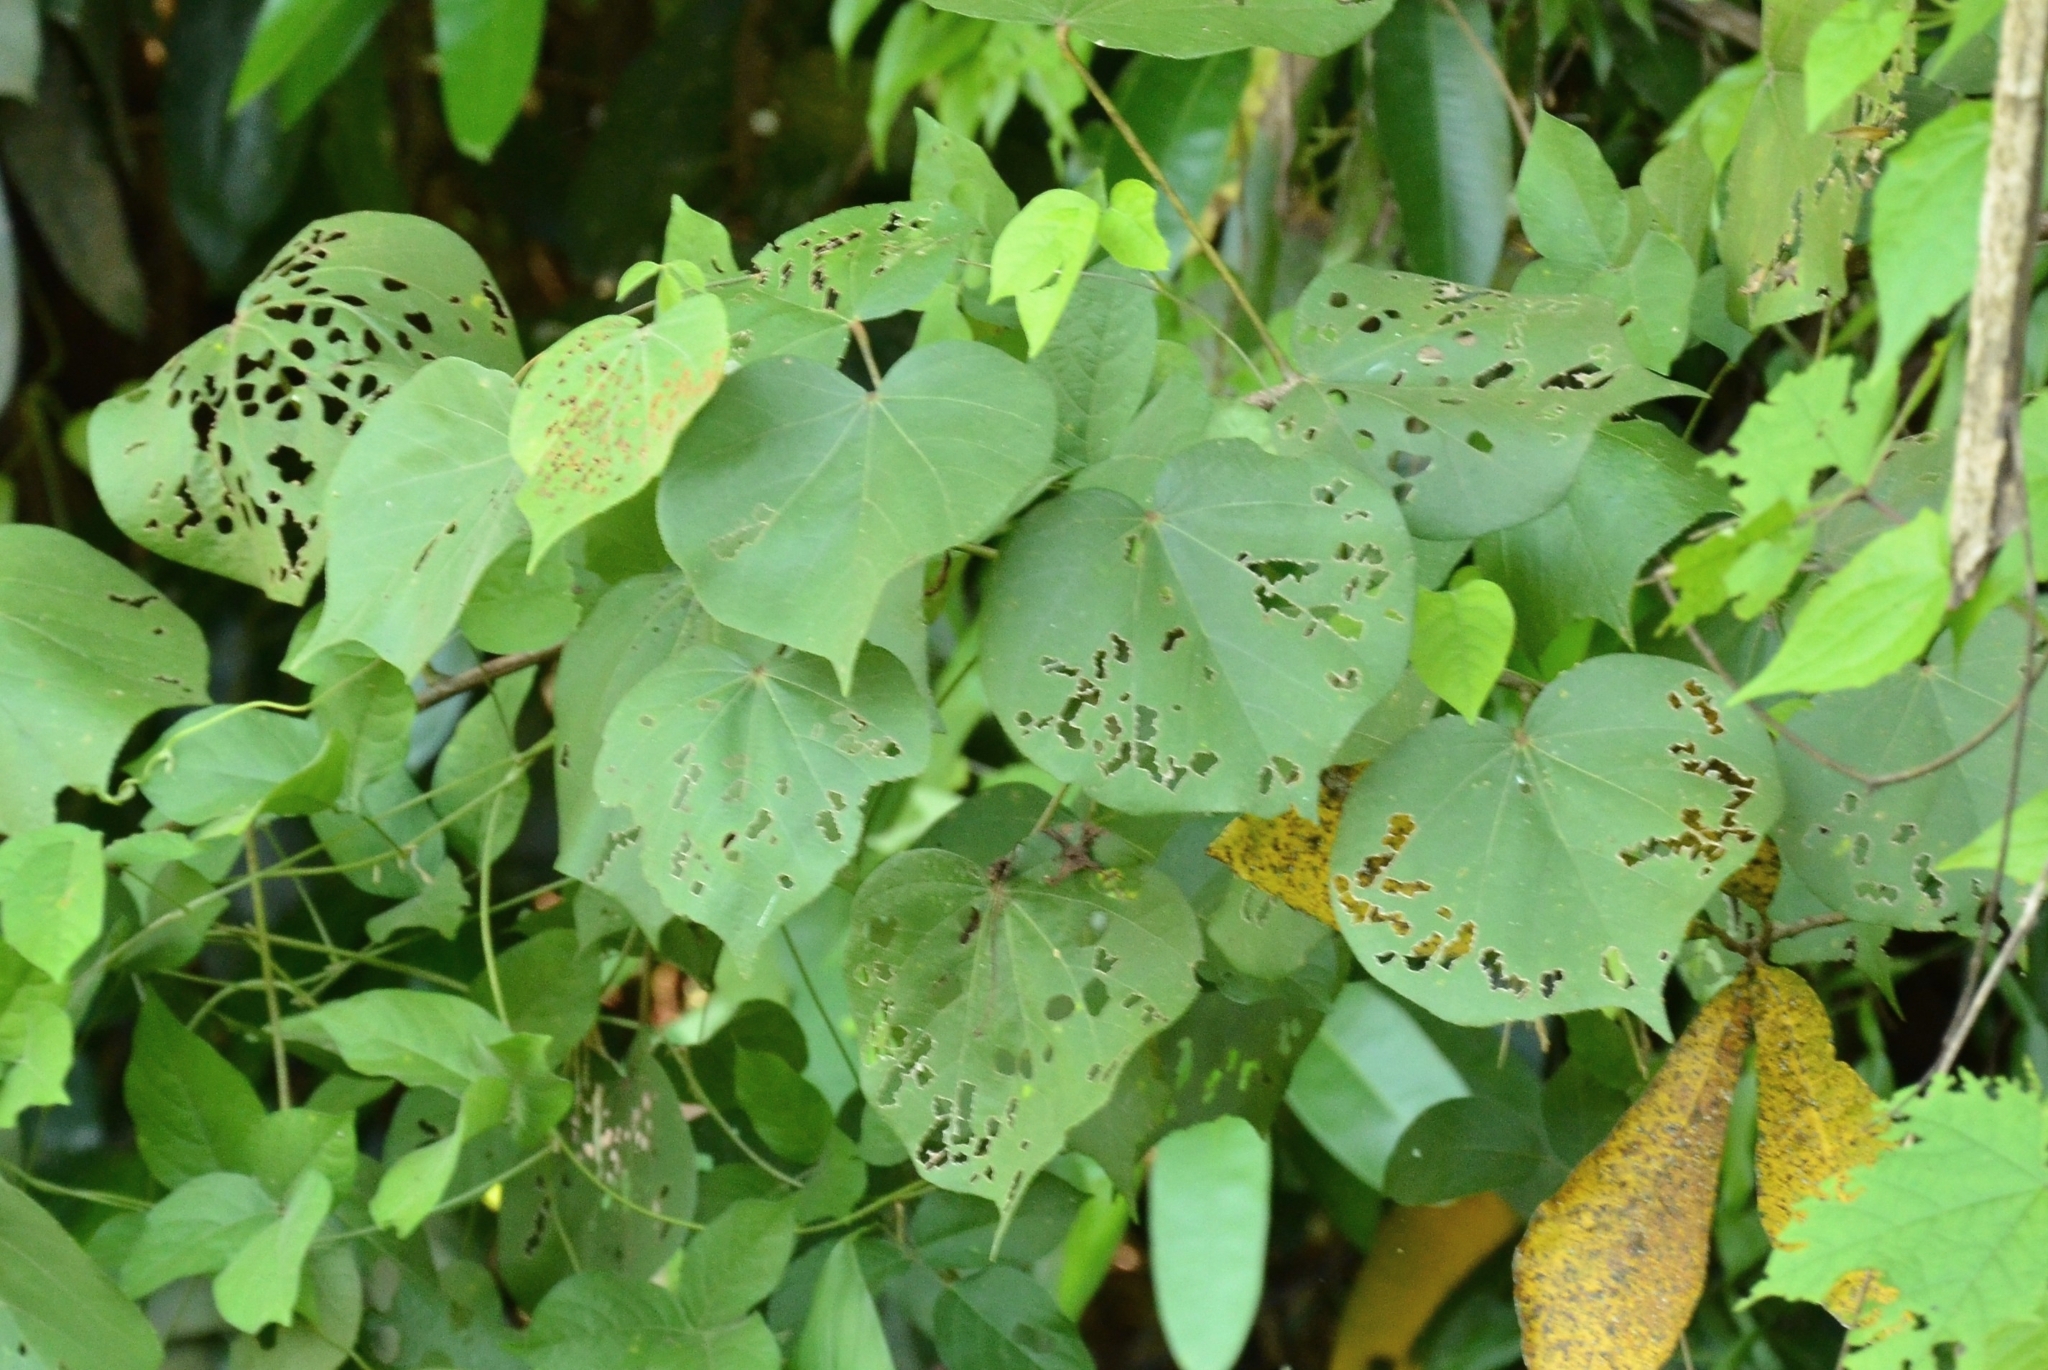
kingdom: Plantae
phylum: Tracheophyta
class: Magnoliopsida
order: Malvales
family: Malvaceae
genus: Talipariti
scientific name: Talipariti tiliaceum
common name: Sea hibiscus
